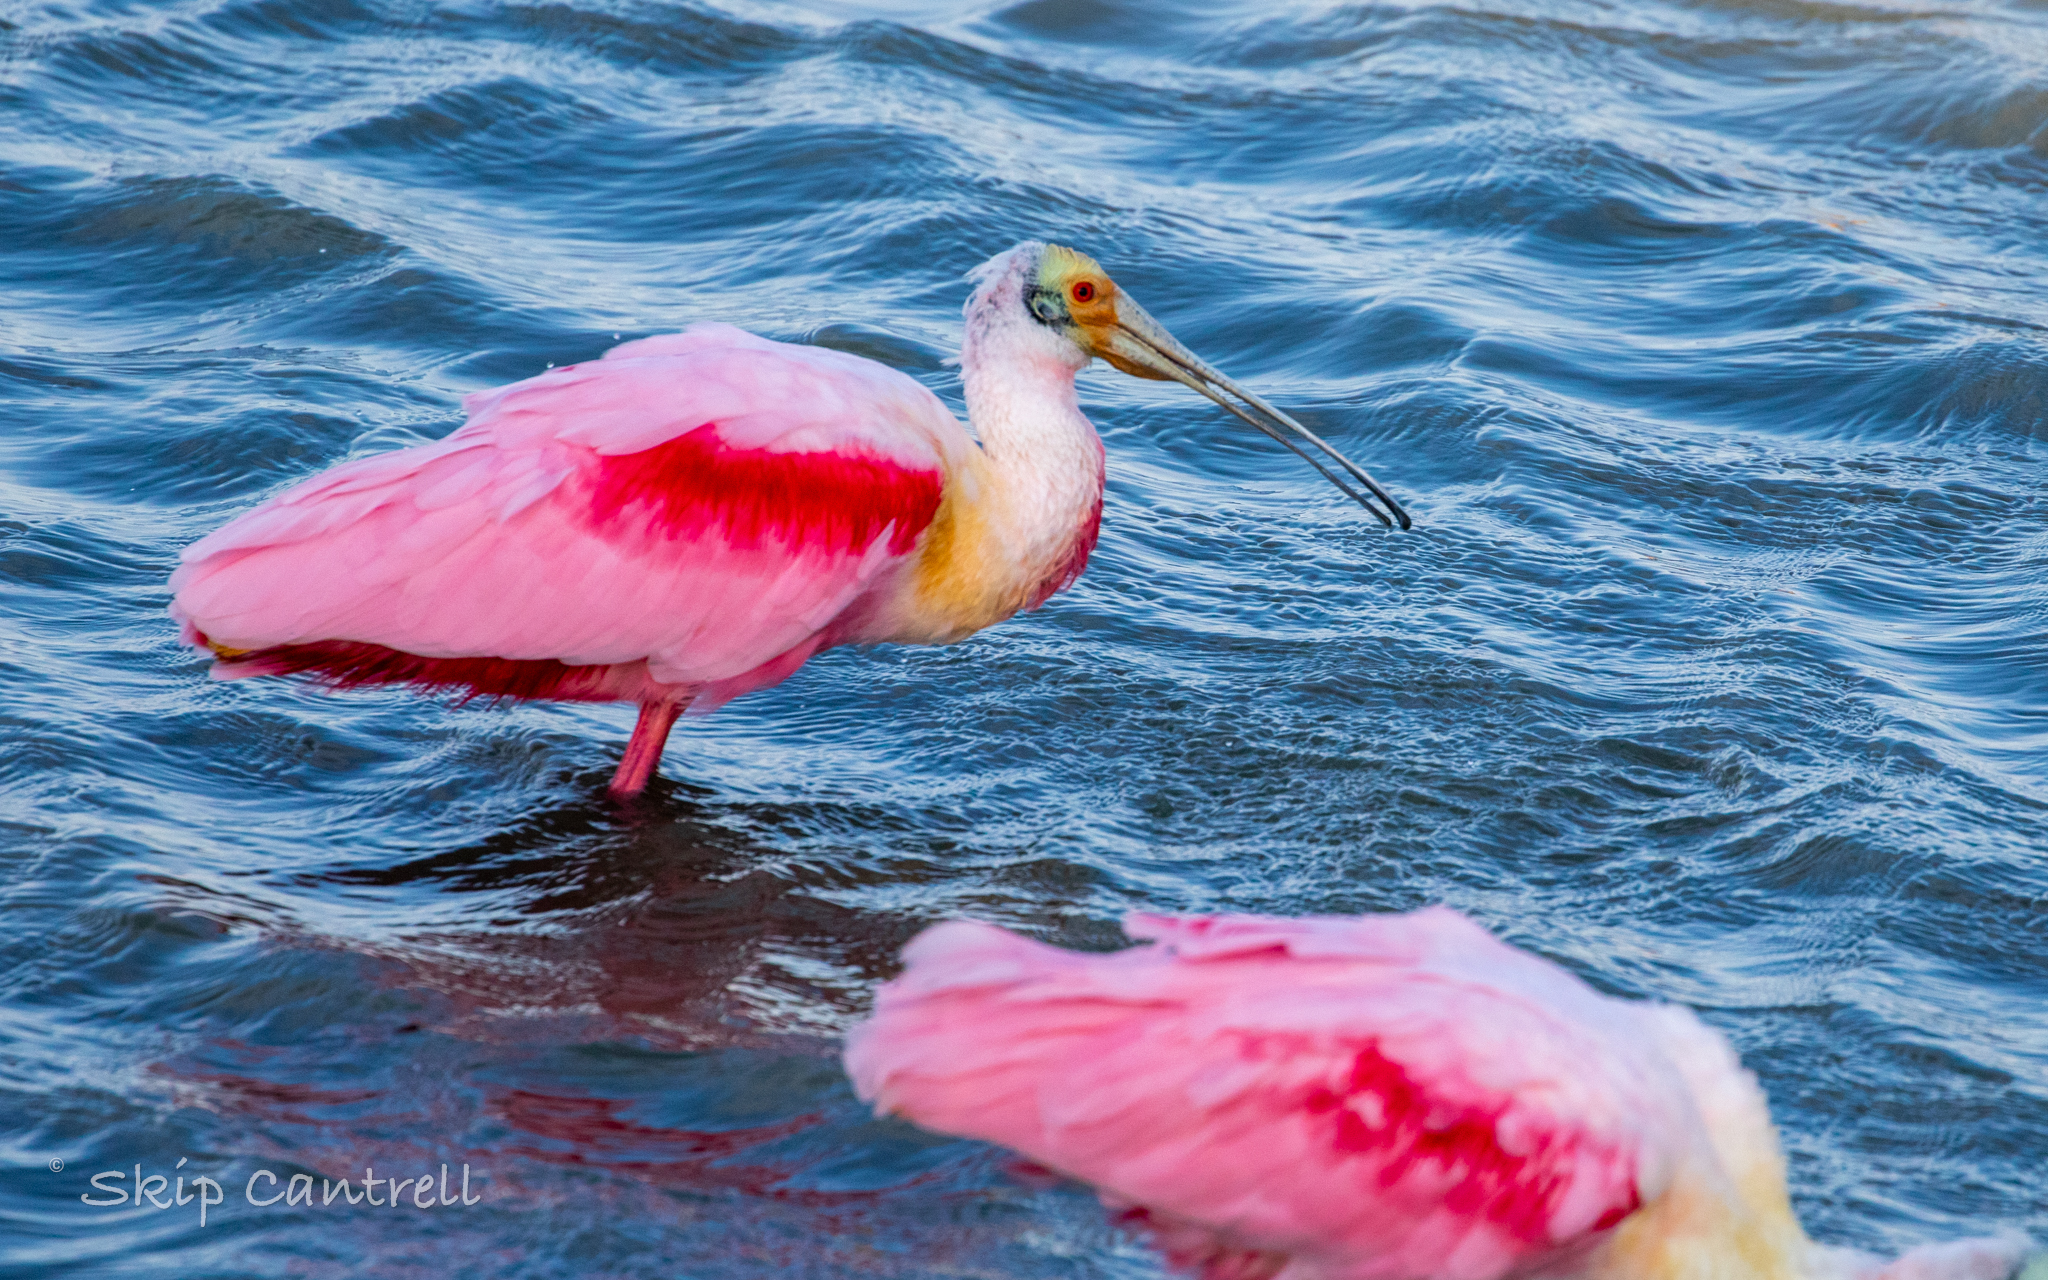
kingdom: Animalia
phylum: Chordata
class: Aves
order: Pelecaniformes
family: Threskiornithidae
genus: Platalea
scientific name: Platalea ajaja
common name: Roseate spoonbill
